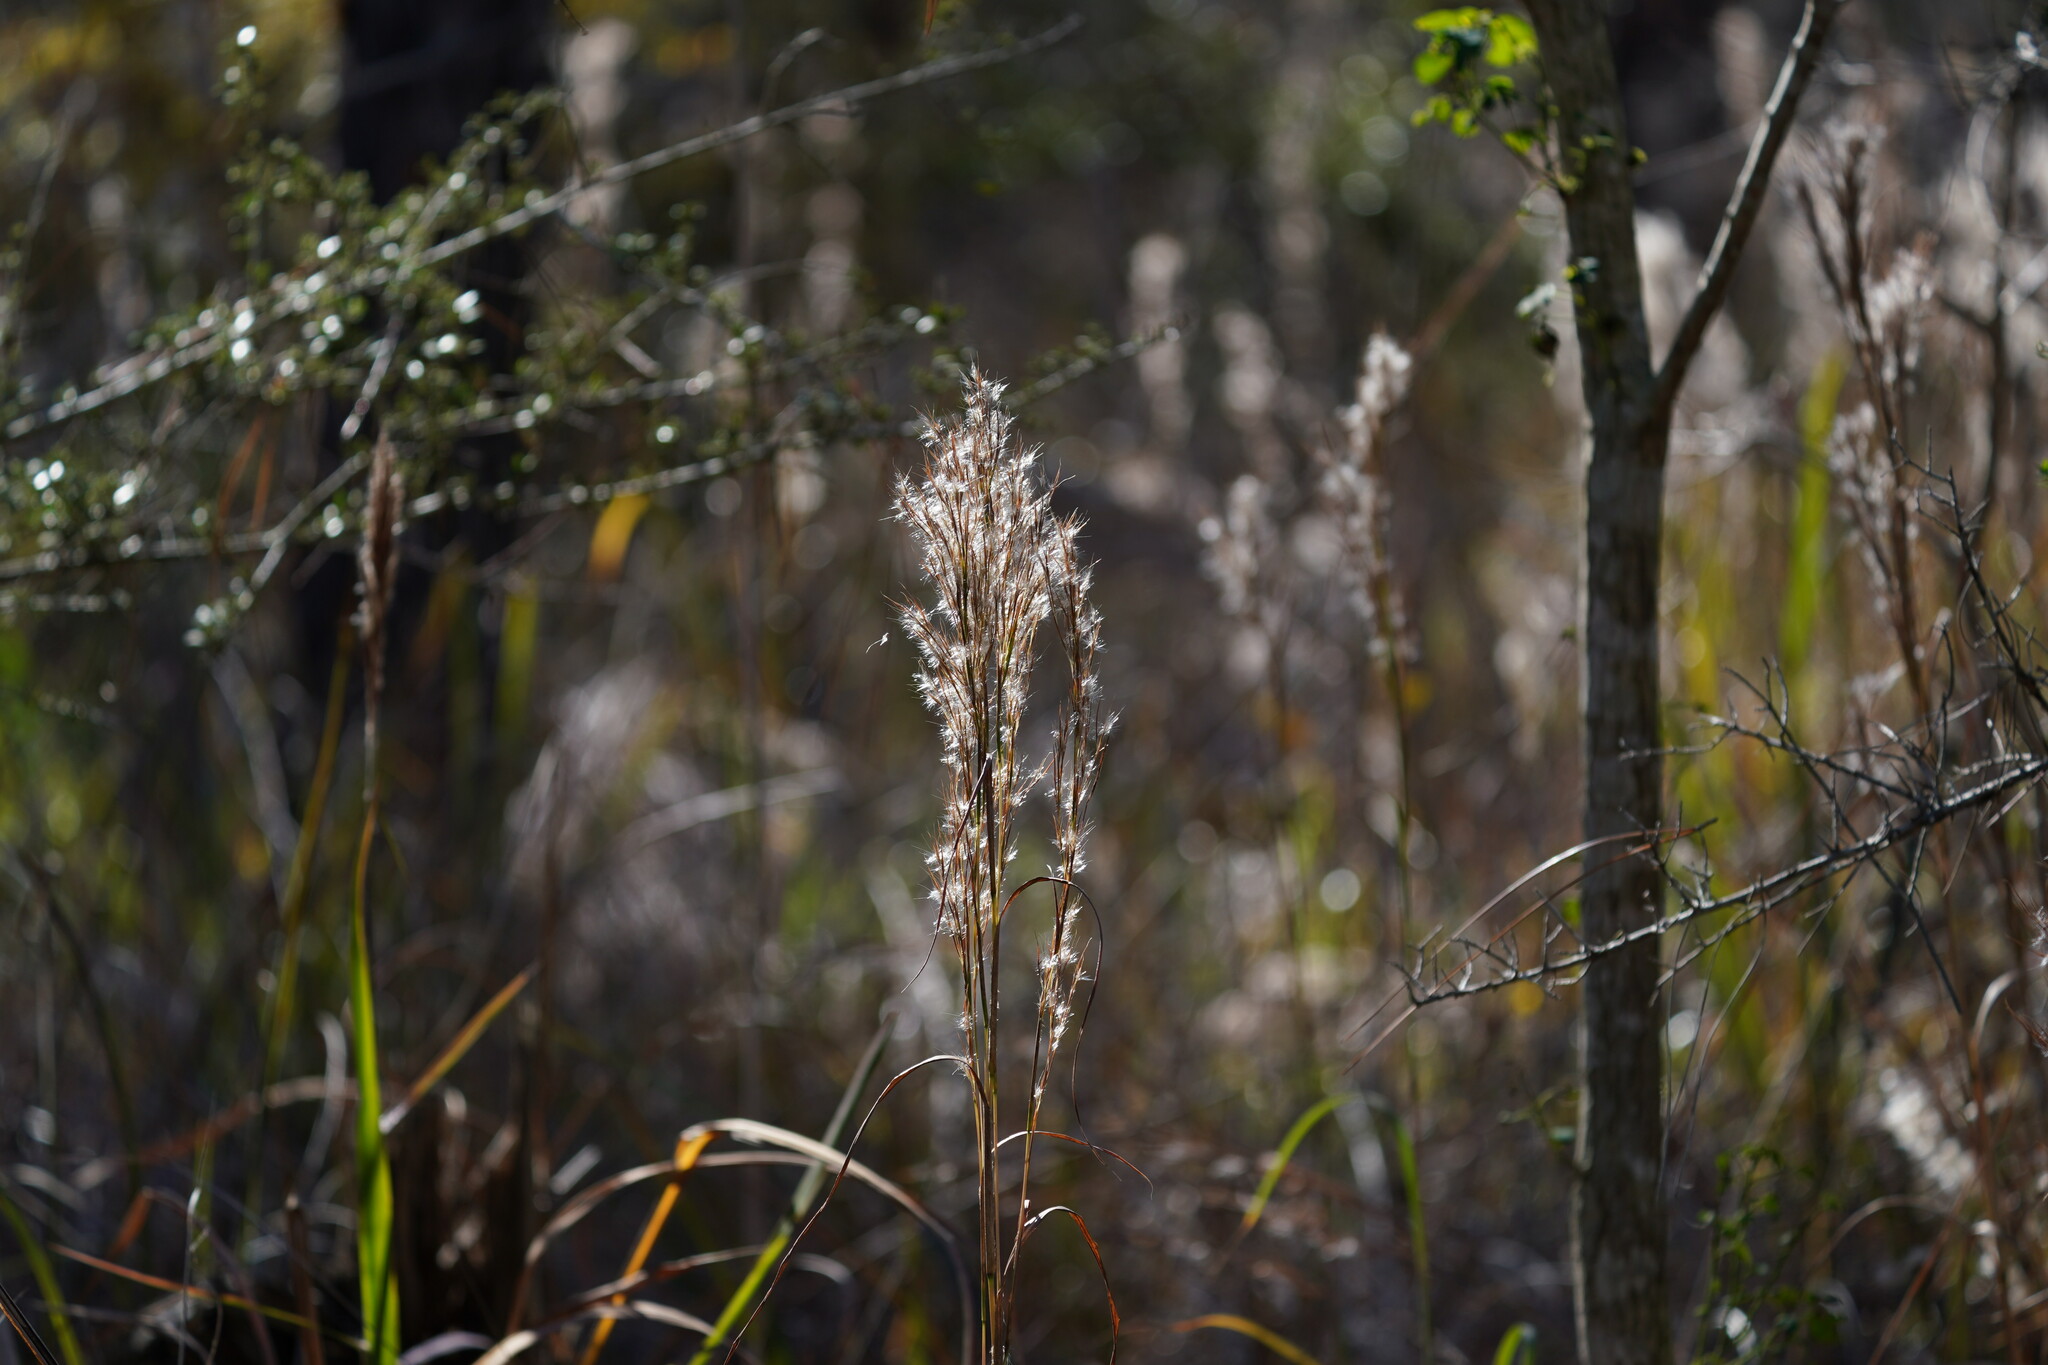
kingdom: Plantae
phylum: Tracheophyta
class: Liliopsida
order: Poales
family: Poaceae
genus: Andropogon
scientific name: Andropogon virginicus
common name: Broomsedge bluestem
